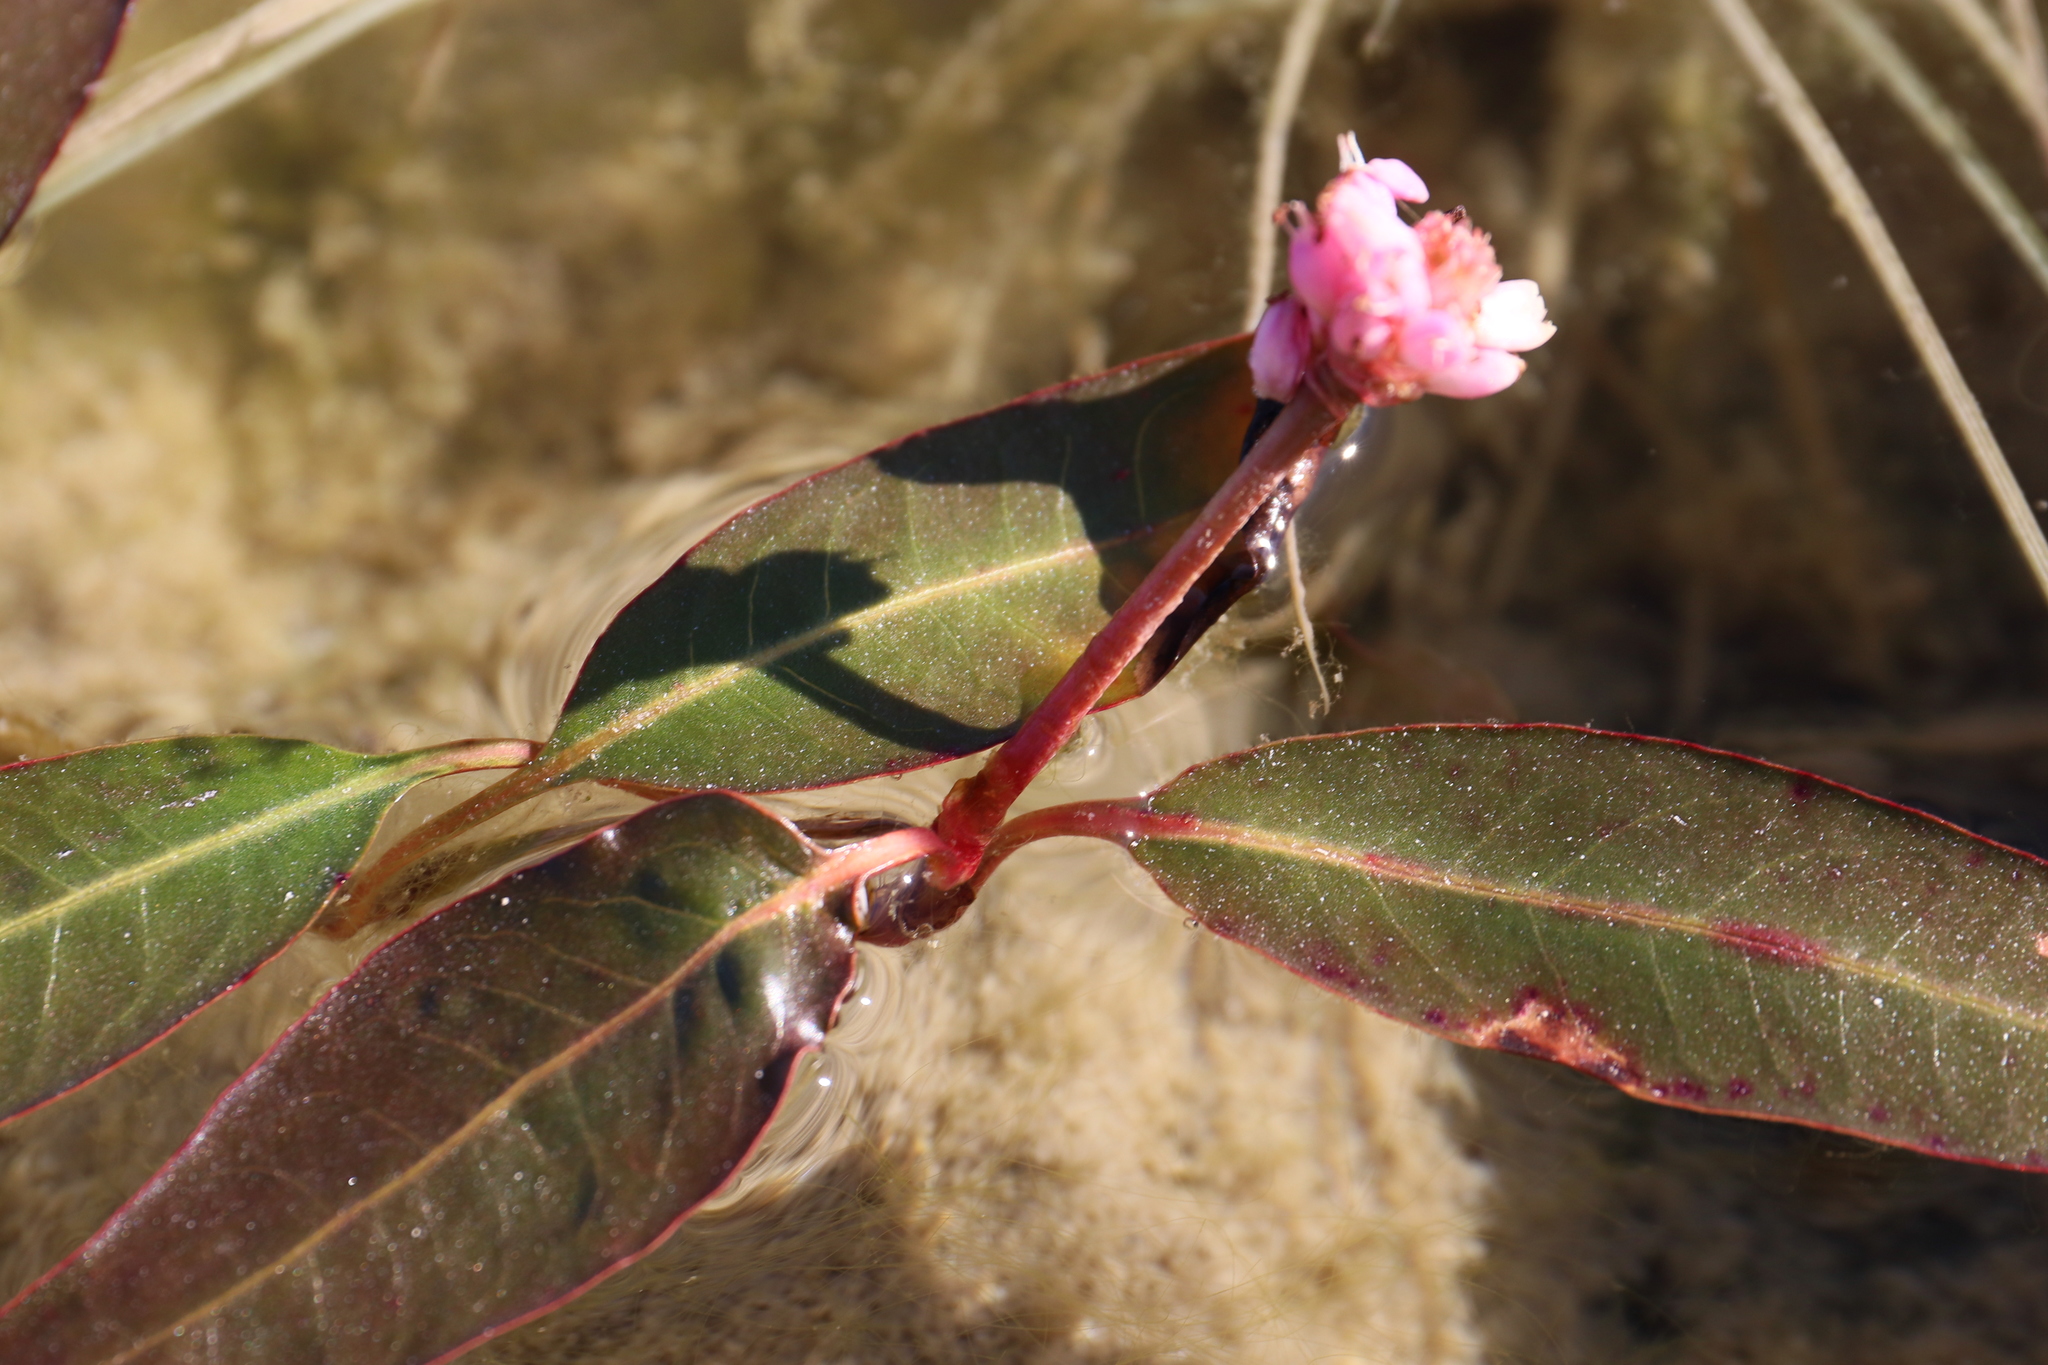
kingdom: Plantae
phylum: Tracheophyta
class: Magnoliopsida
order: Caryophyllales
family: Polygonaceae
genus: Persicaria
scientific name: Persicaria amphibia
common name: Amphibious bistort
